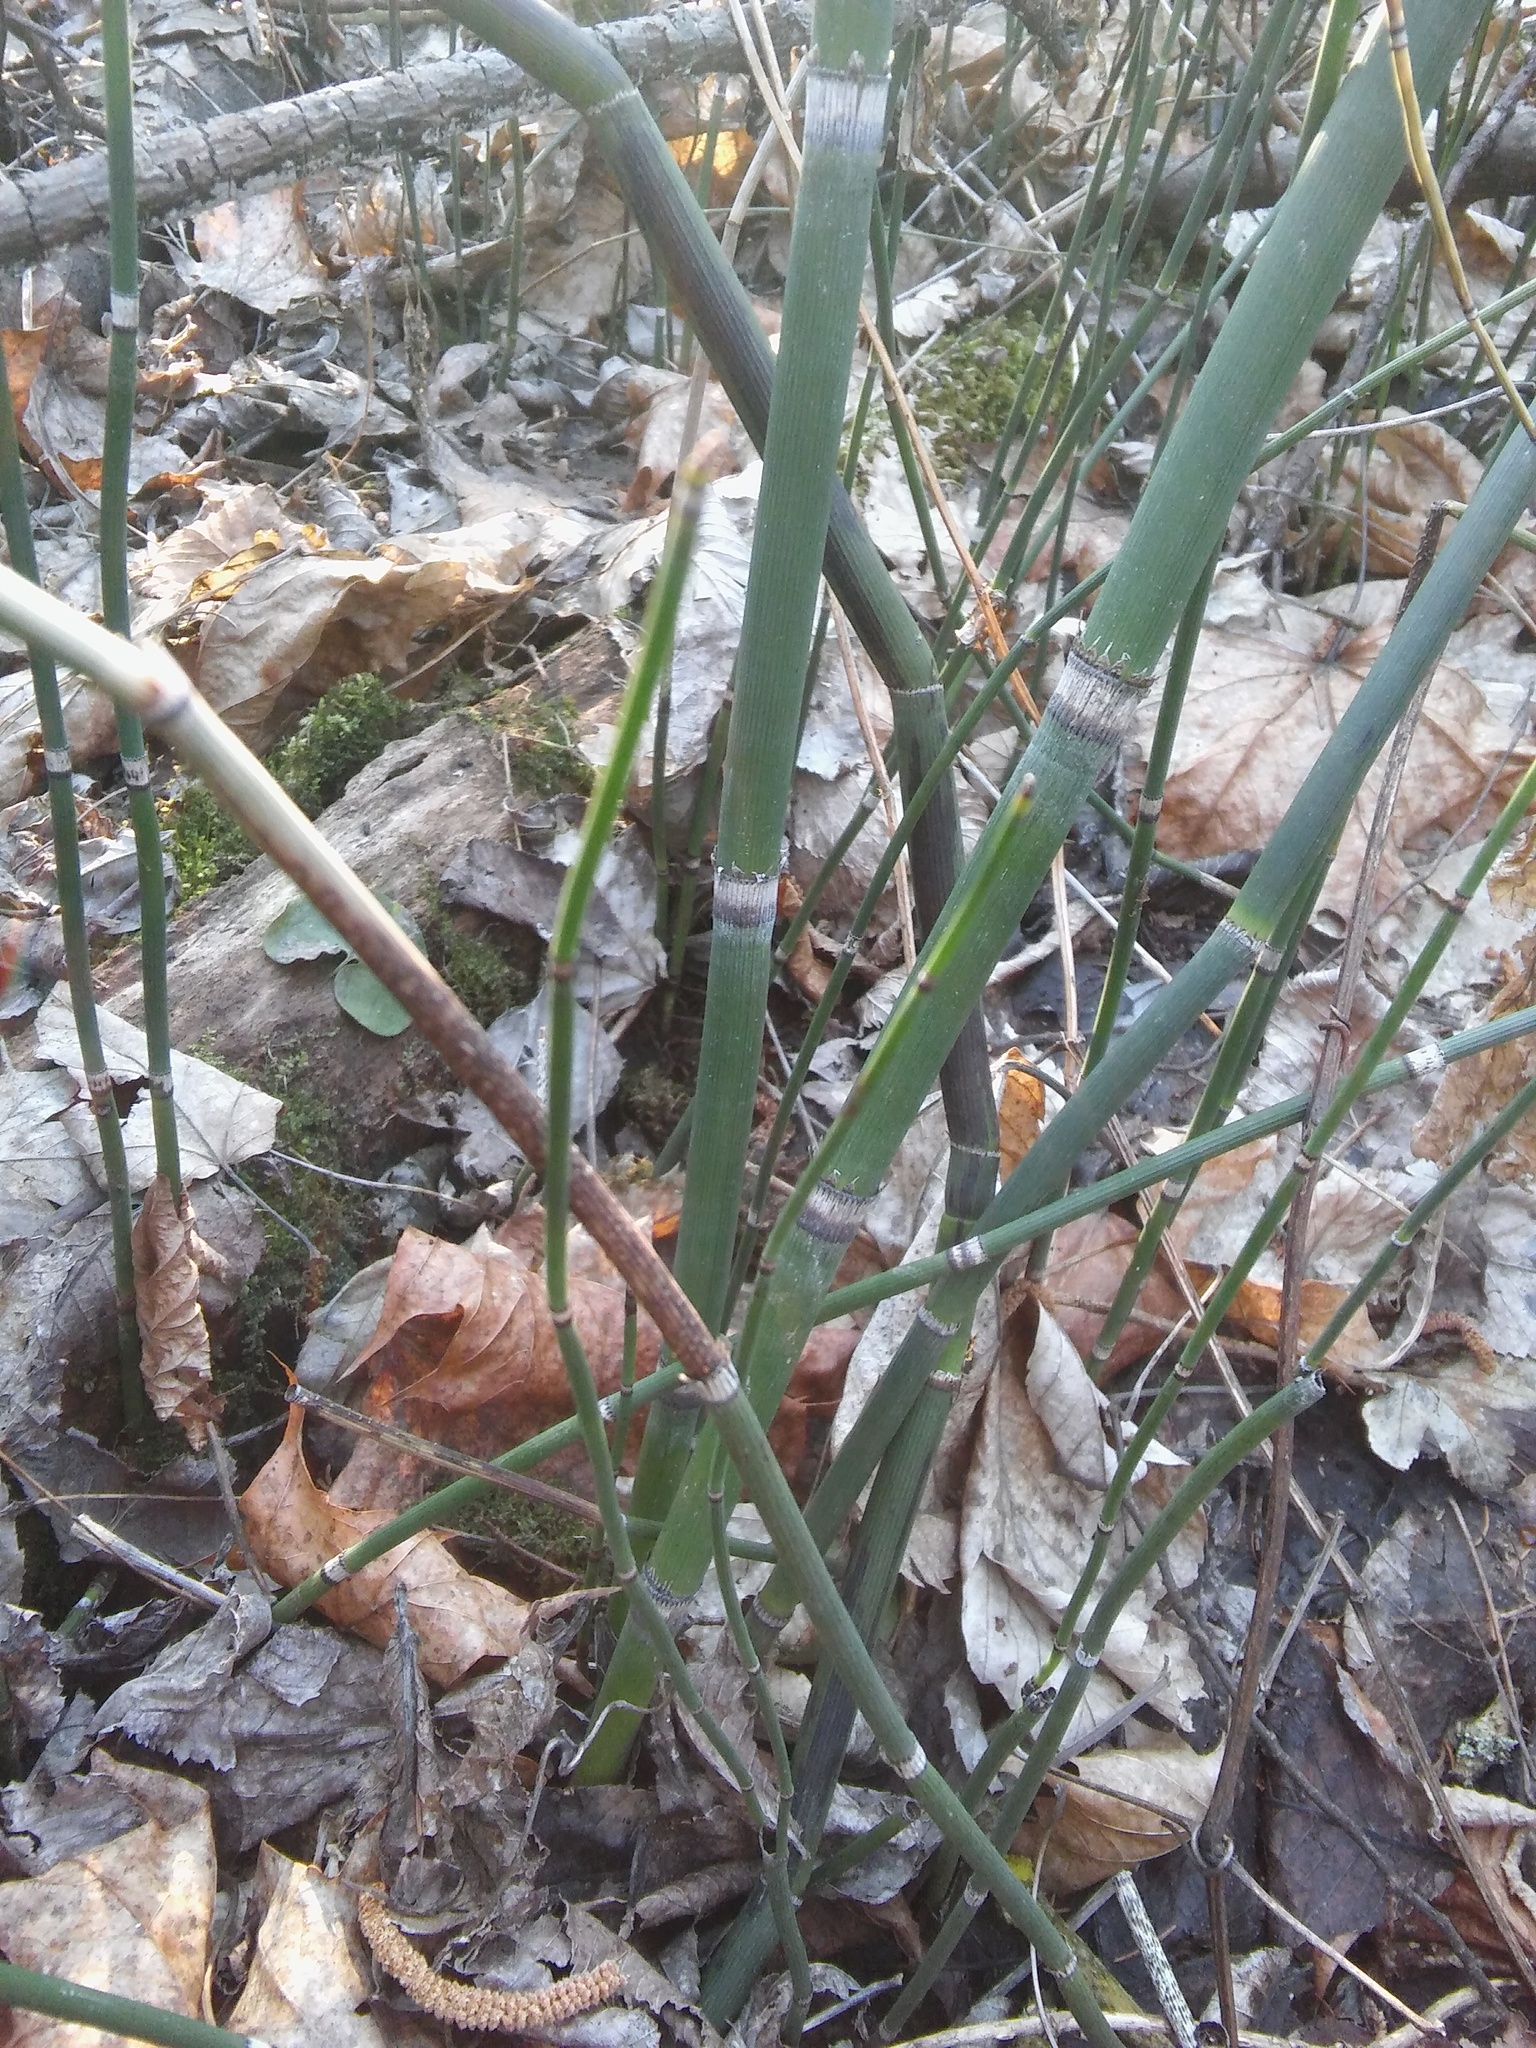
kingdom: Fungi
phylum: Ascomycota
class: Leotiomycetes
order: Helotiales
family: Helotiaceae
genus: Stamnaria
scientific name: Stamnaria americana
